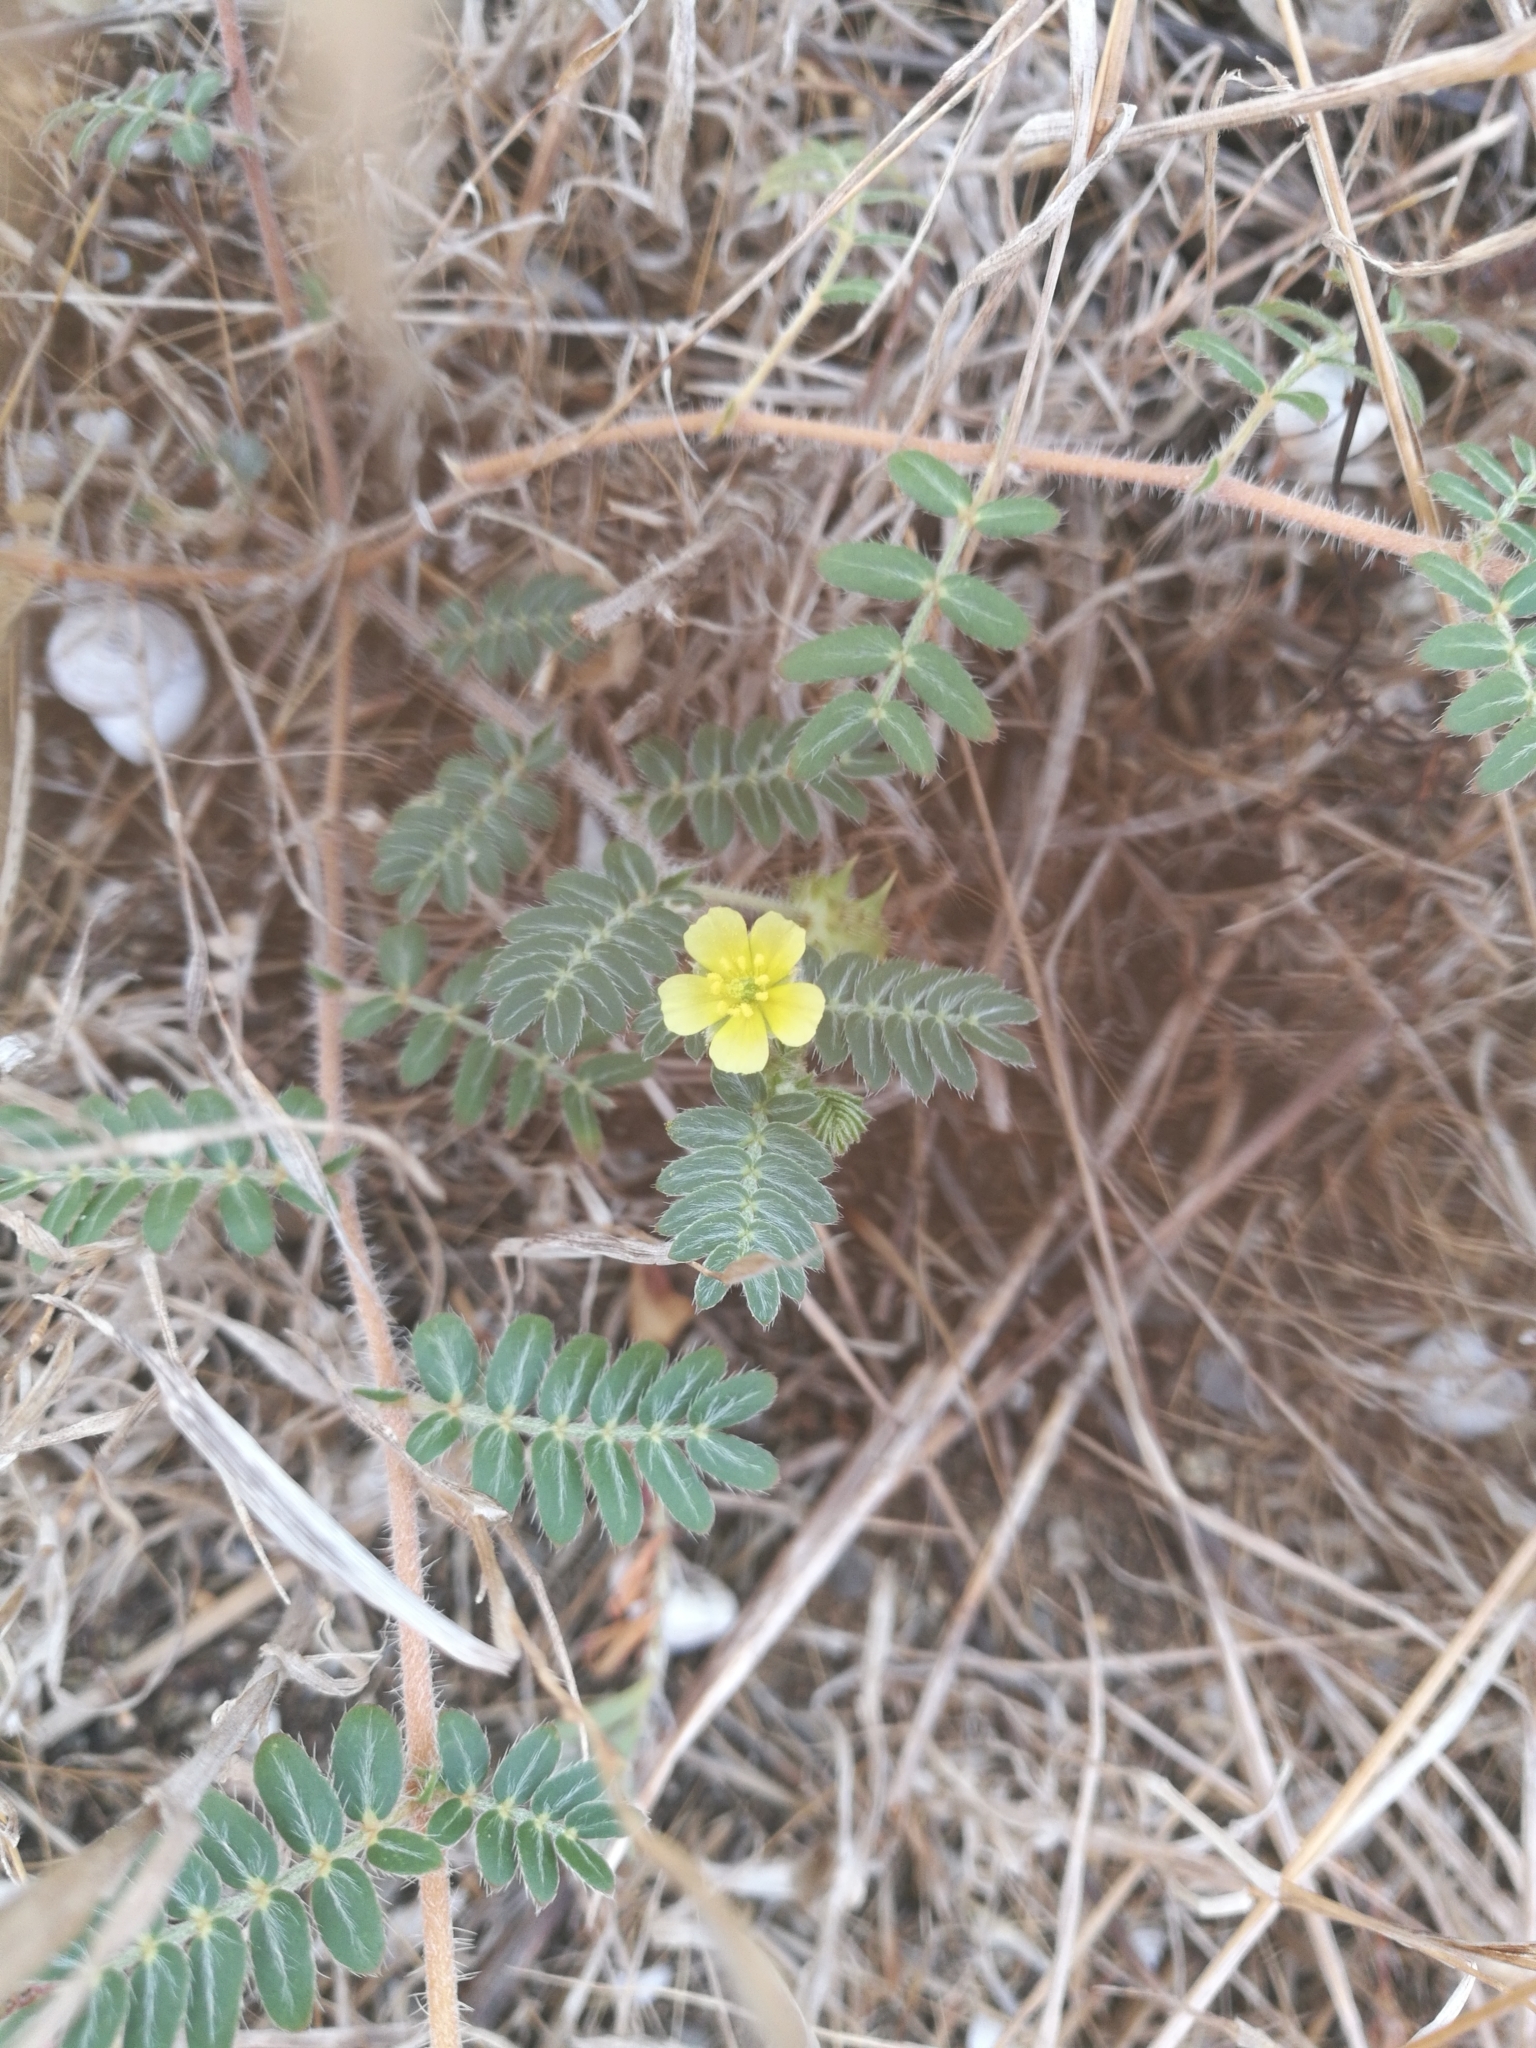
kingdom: Plantae
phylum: Tracheophyta
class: Magnoliopsida
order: Zygophyllales
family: Zygophyllaceae
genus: Tribulus
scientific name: Tribulus terrestris
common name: Puncturevine
